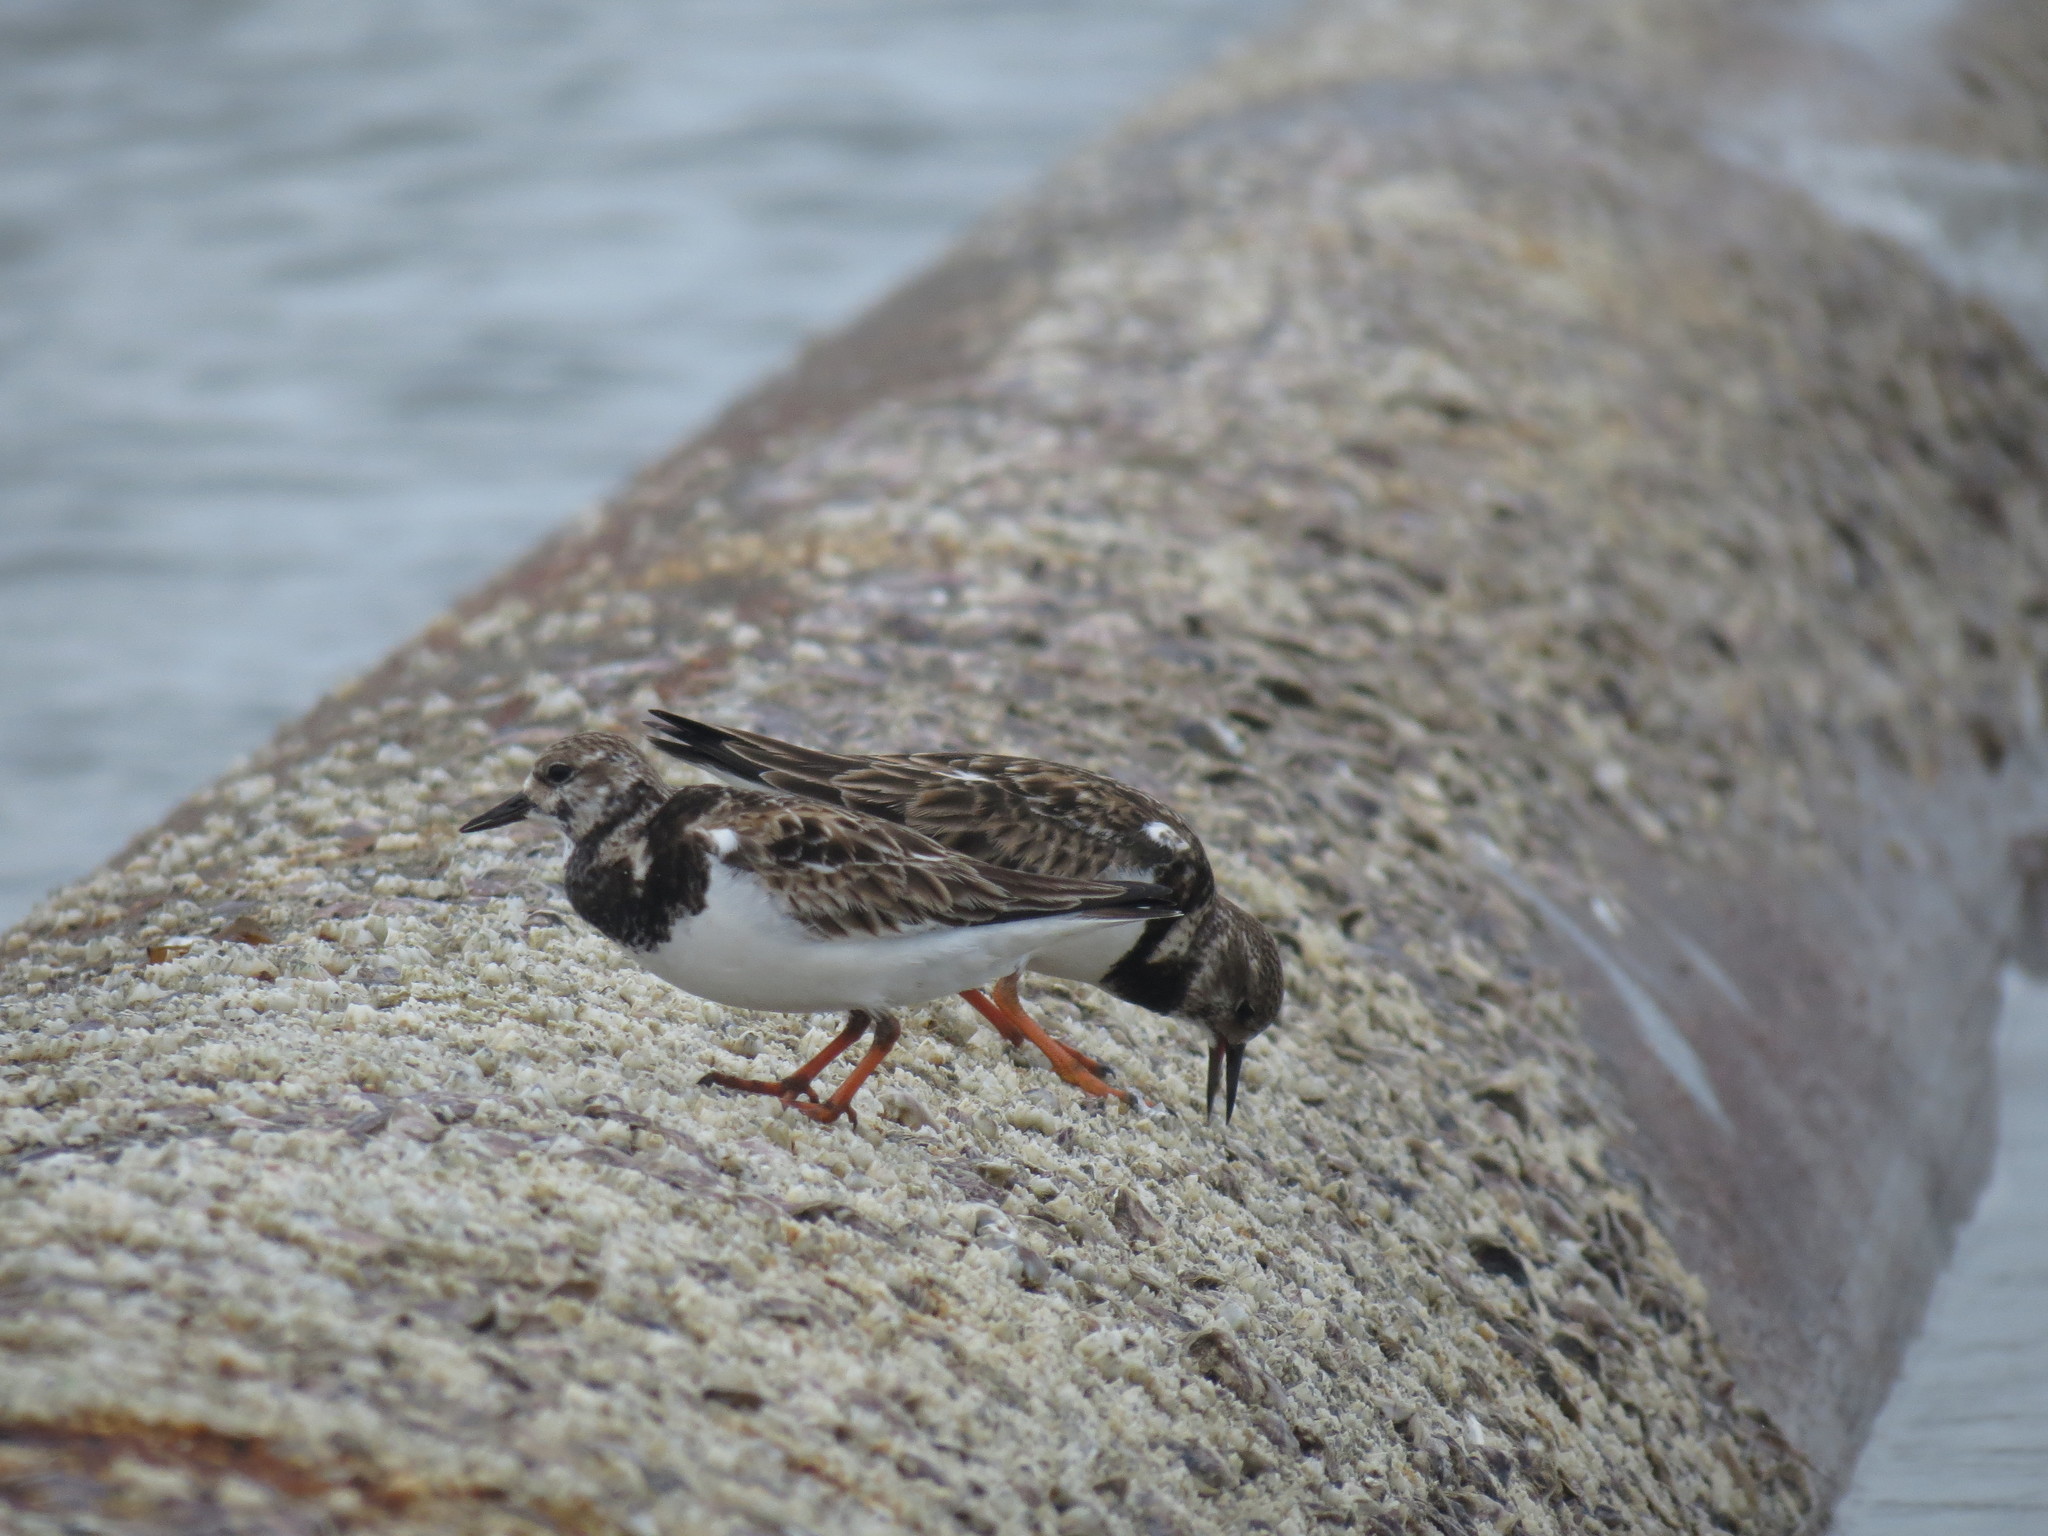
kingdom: Animalia
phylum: Chordata
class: Aves
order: Charadriiformes
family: Scolopacidae
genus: Arenaria
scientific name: Arenaria interpres
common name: Ruddy turnstone
